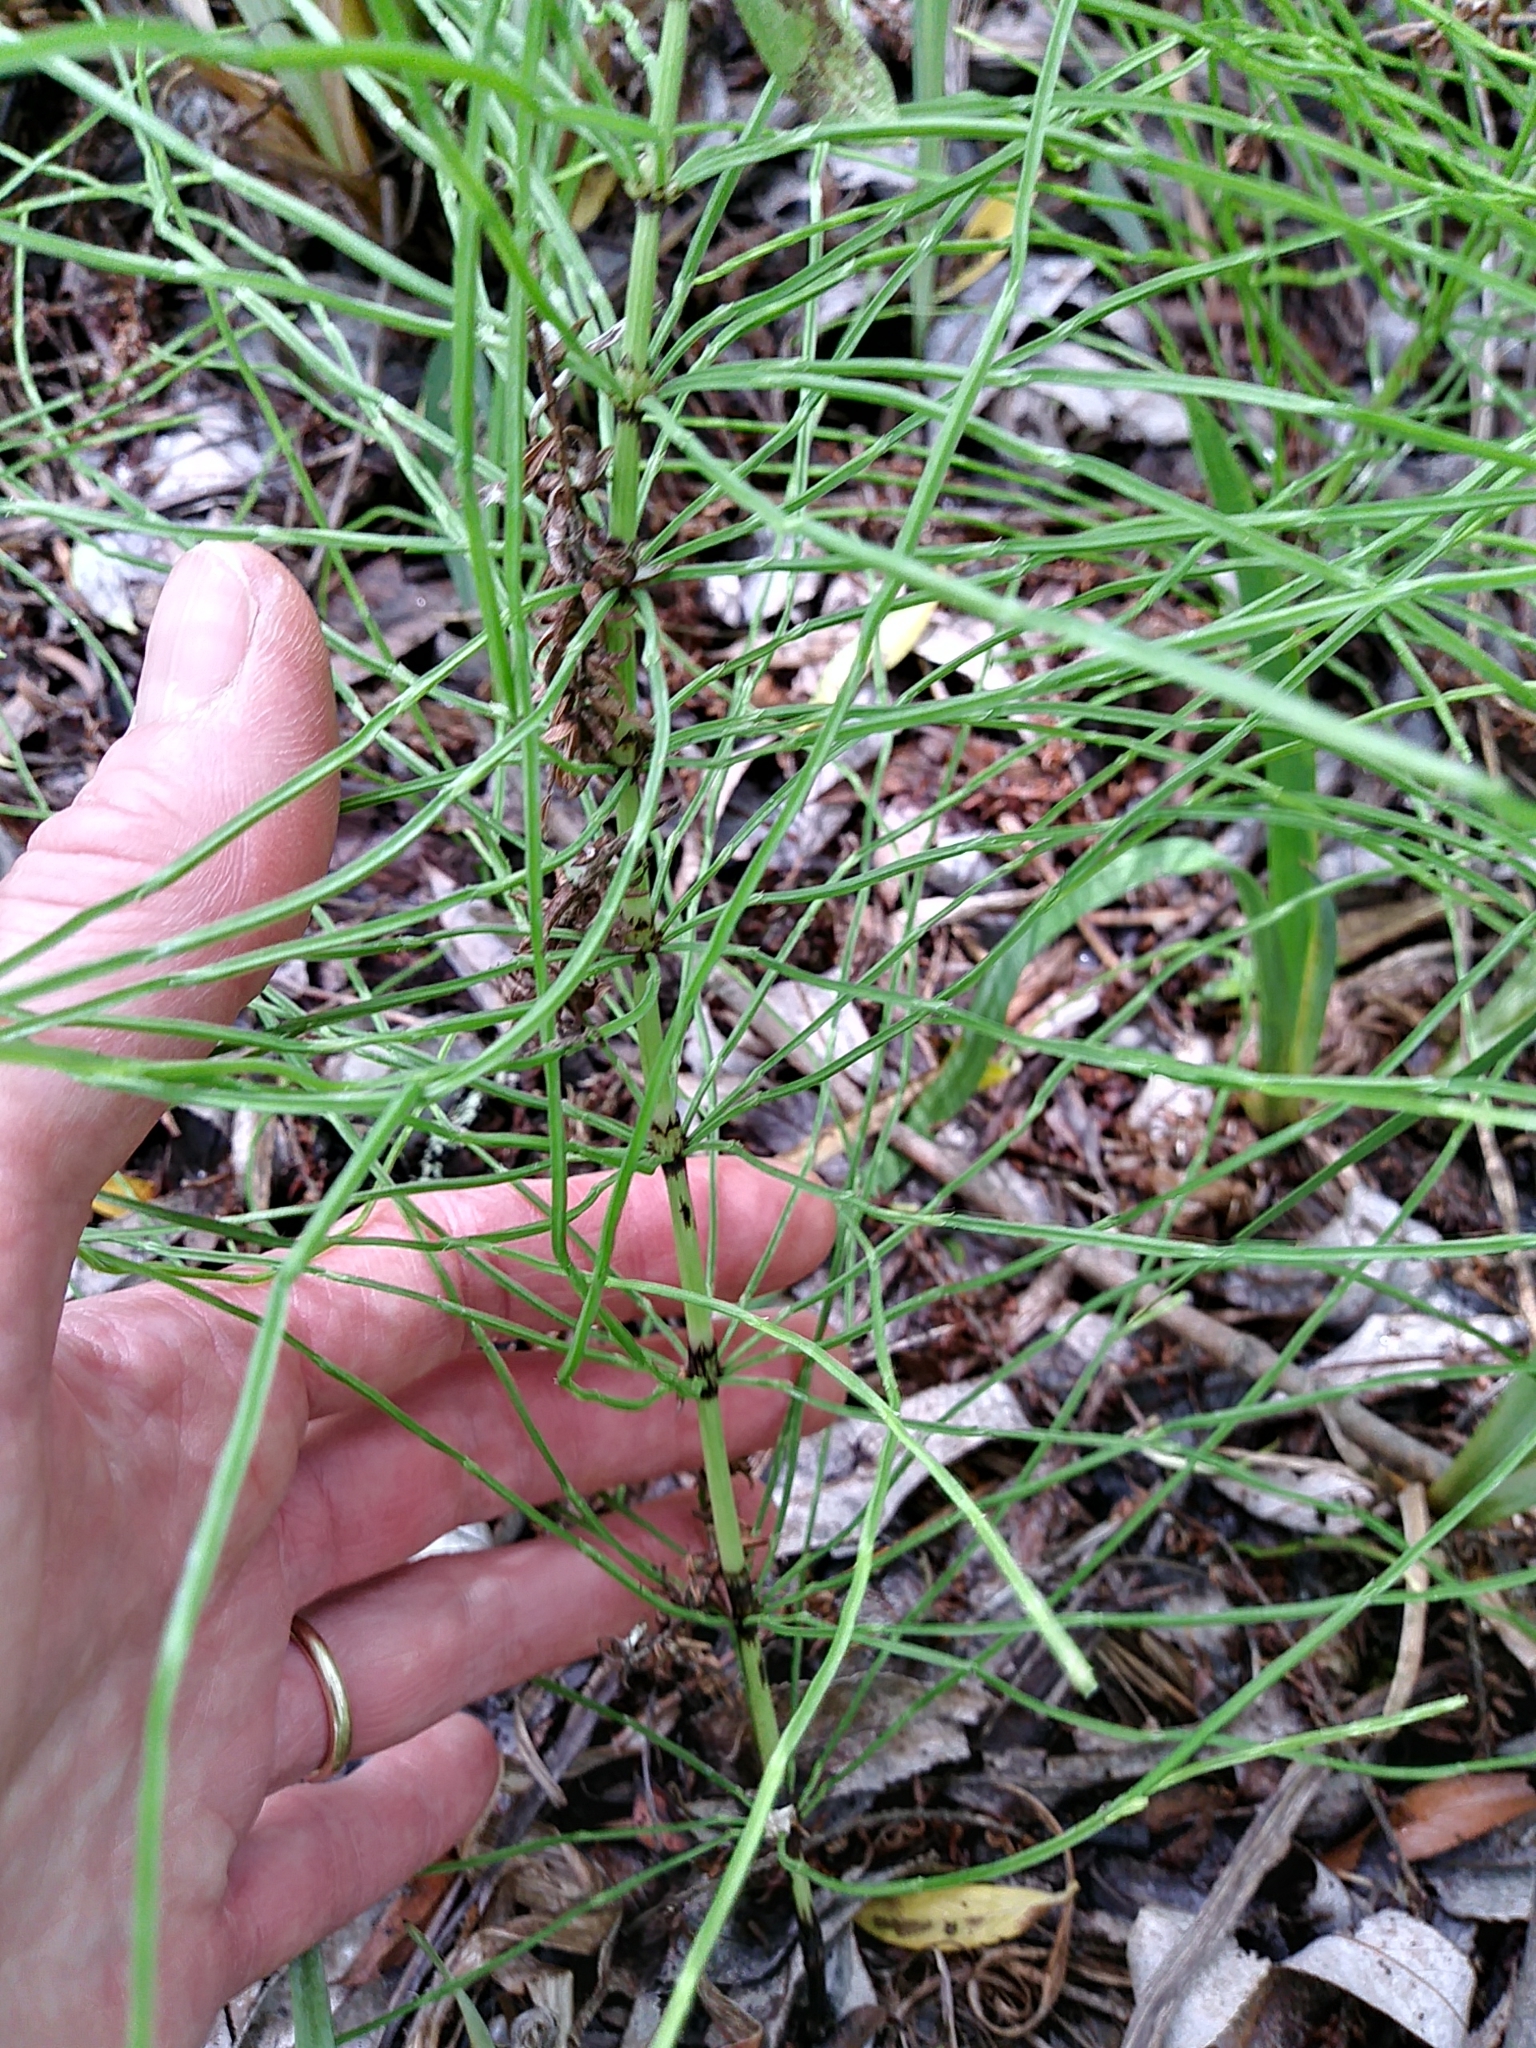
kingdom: Plantae
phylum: Tracheophyta
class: Polypodiopsida
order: Equisetales
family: Equisetaceae
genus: Equisetum
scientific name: Equisetum arvense
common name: Field horsetail
